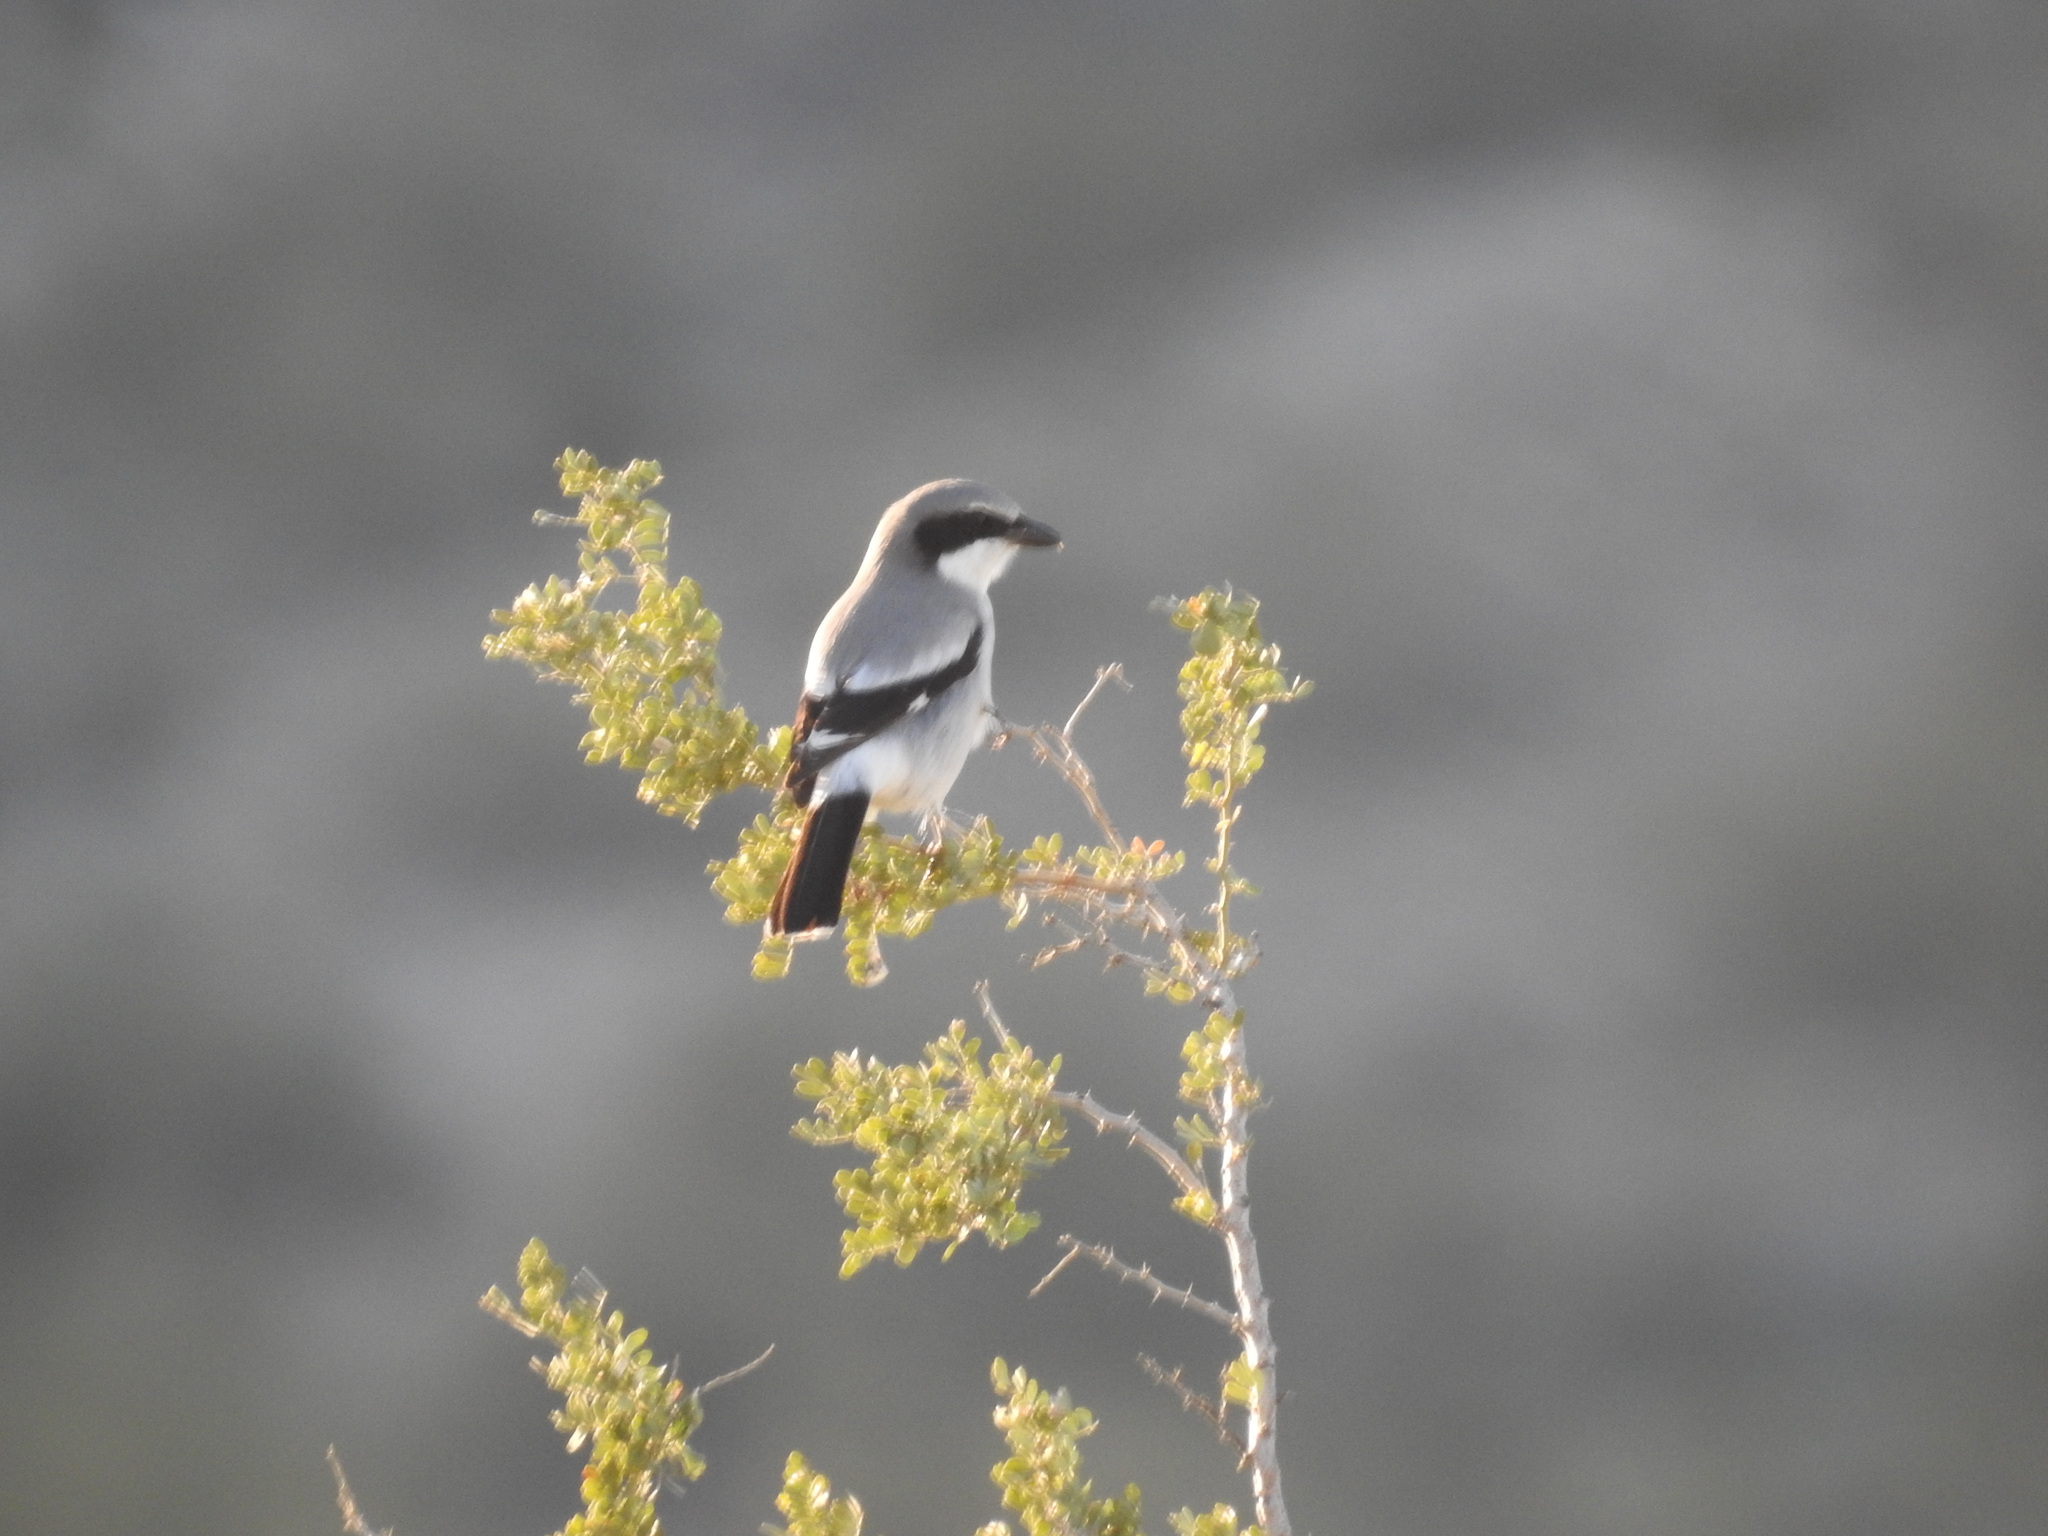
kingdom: Animalia
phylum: Chordata
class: Aves
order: Passeriformes
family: Laniidae
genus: Lanius
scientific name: Lanius ludovicianus
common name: Loggerhead shrike
